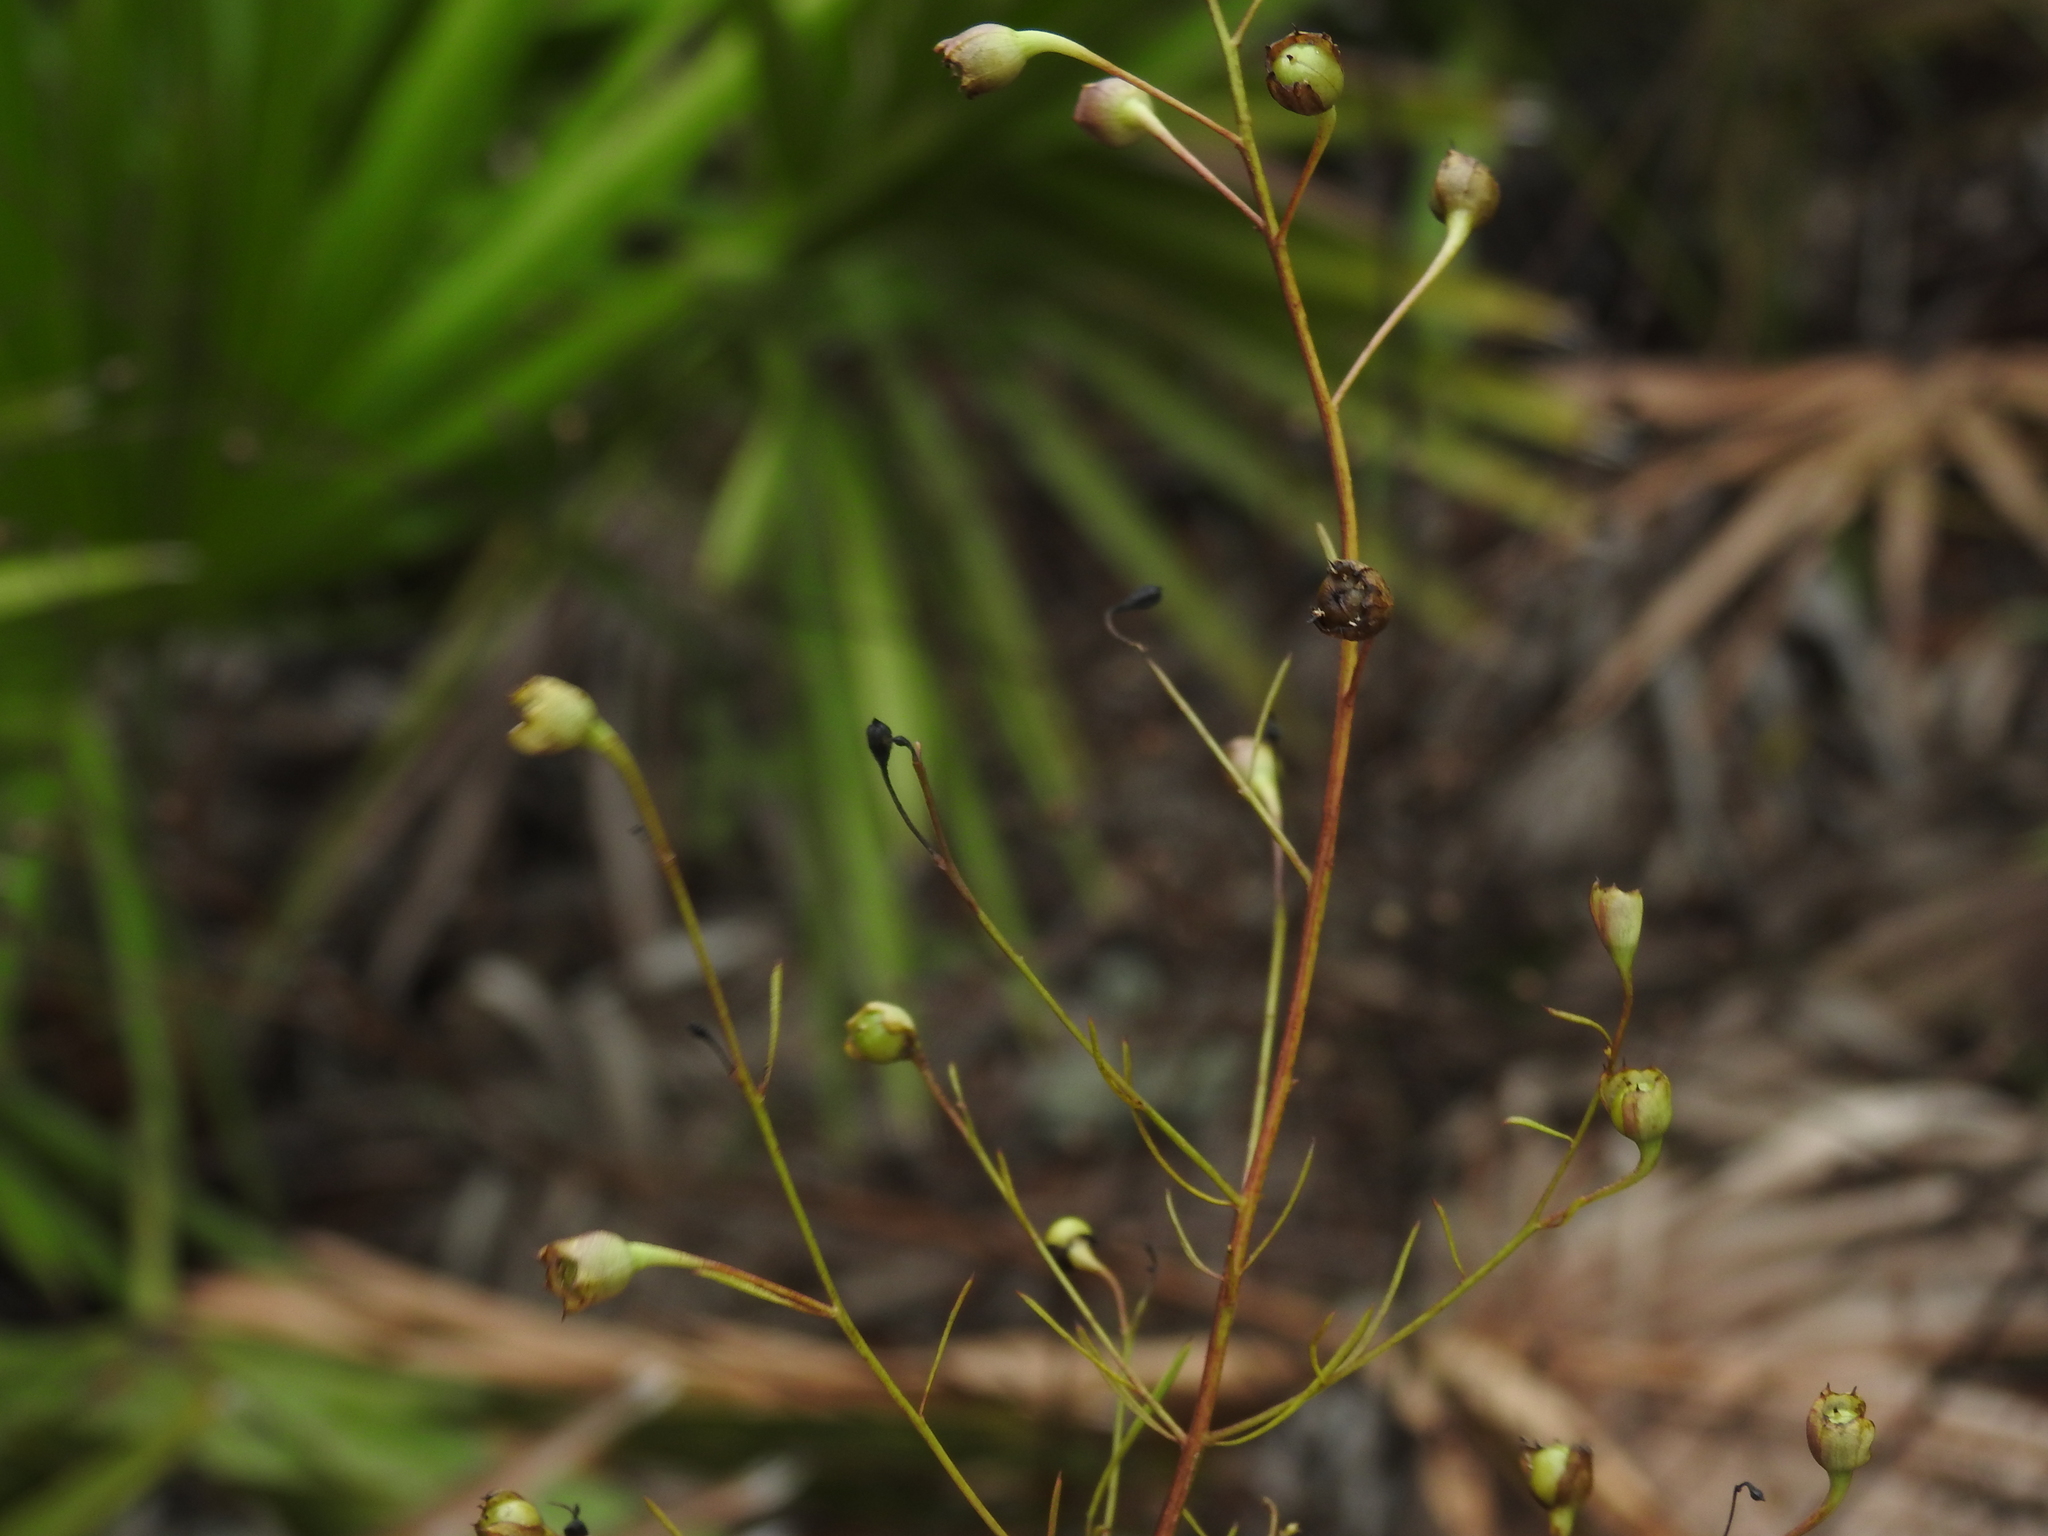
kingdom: Plantae
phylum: Tracheophyta
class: Magnoliopsida
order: Lamiales
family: Orobanchaceae
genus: Agalinis
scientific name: Agalinis filifolia
